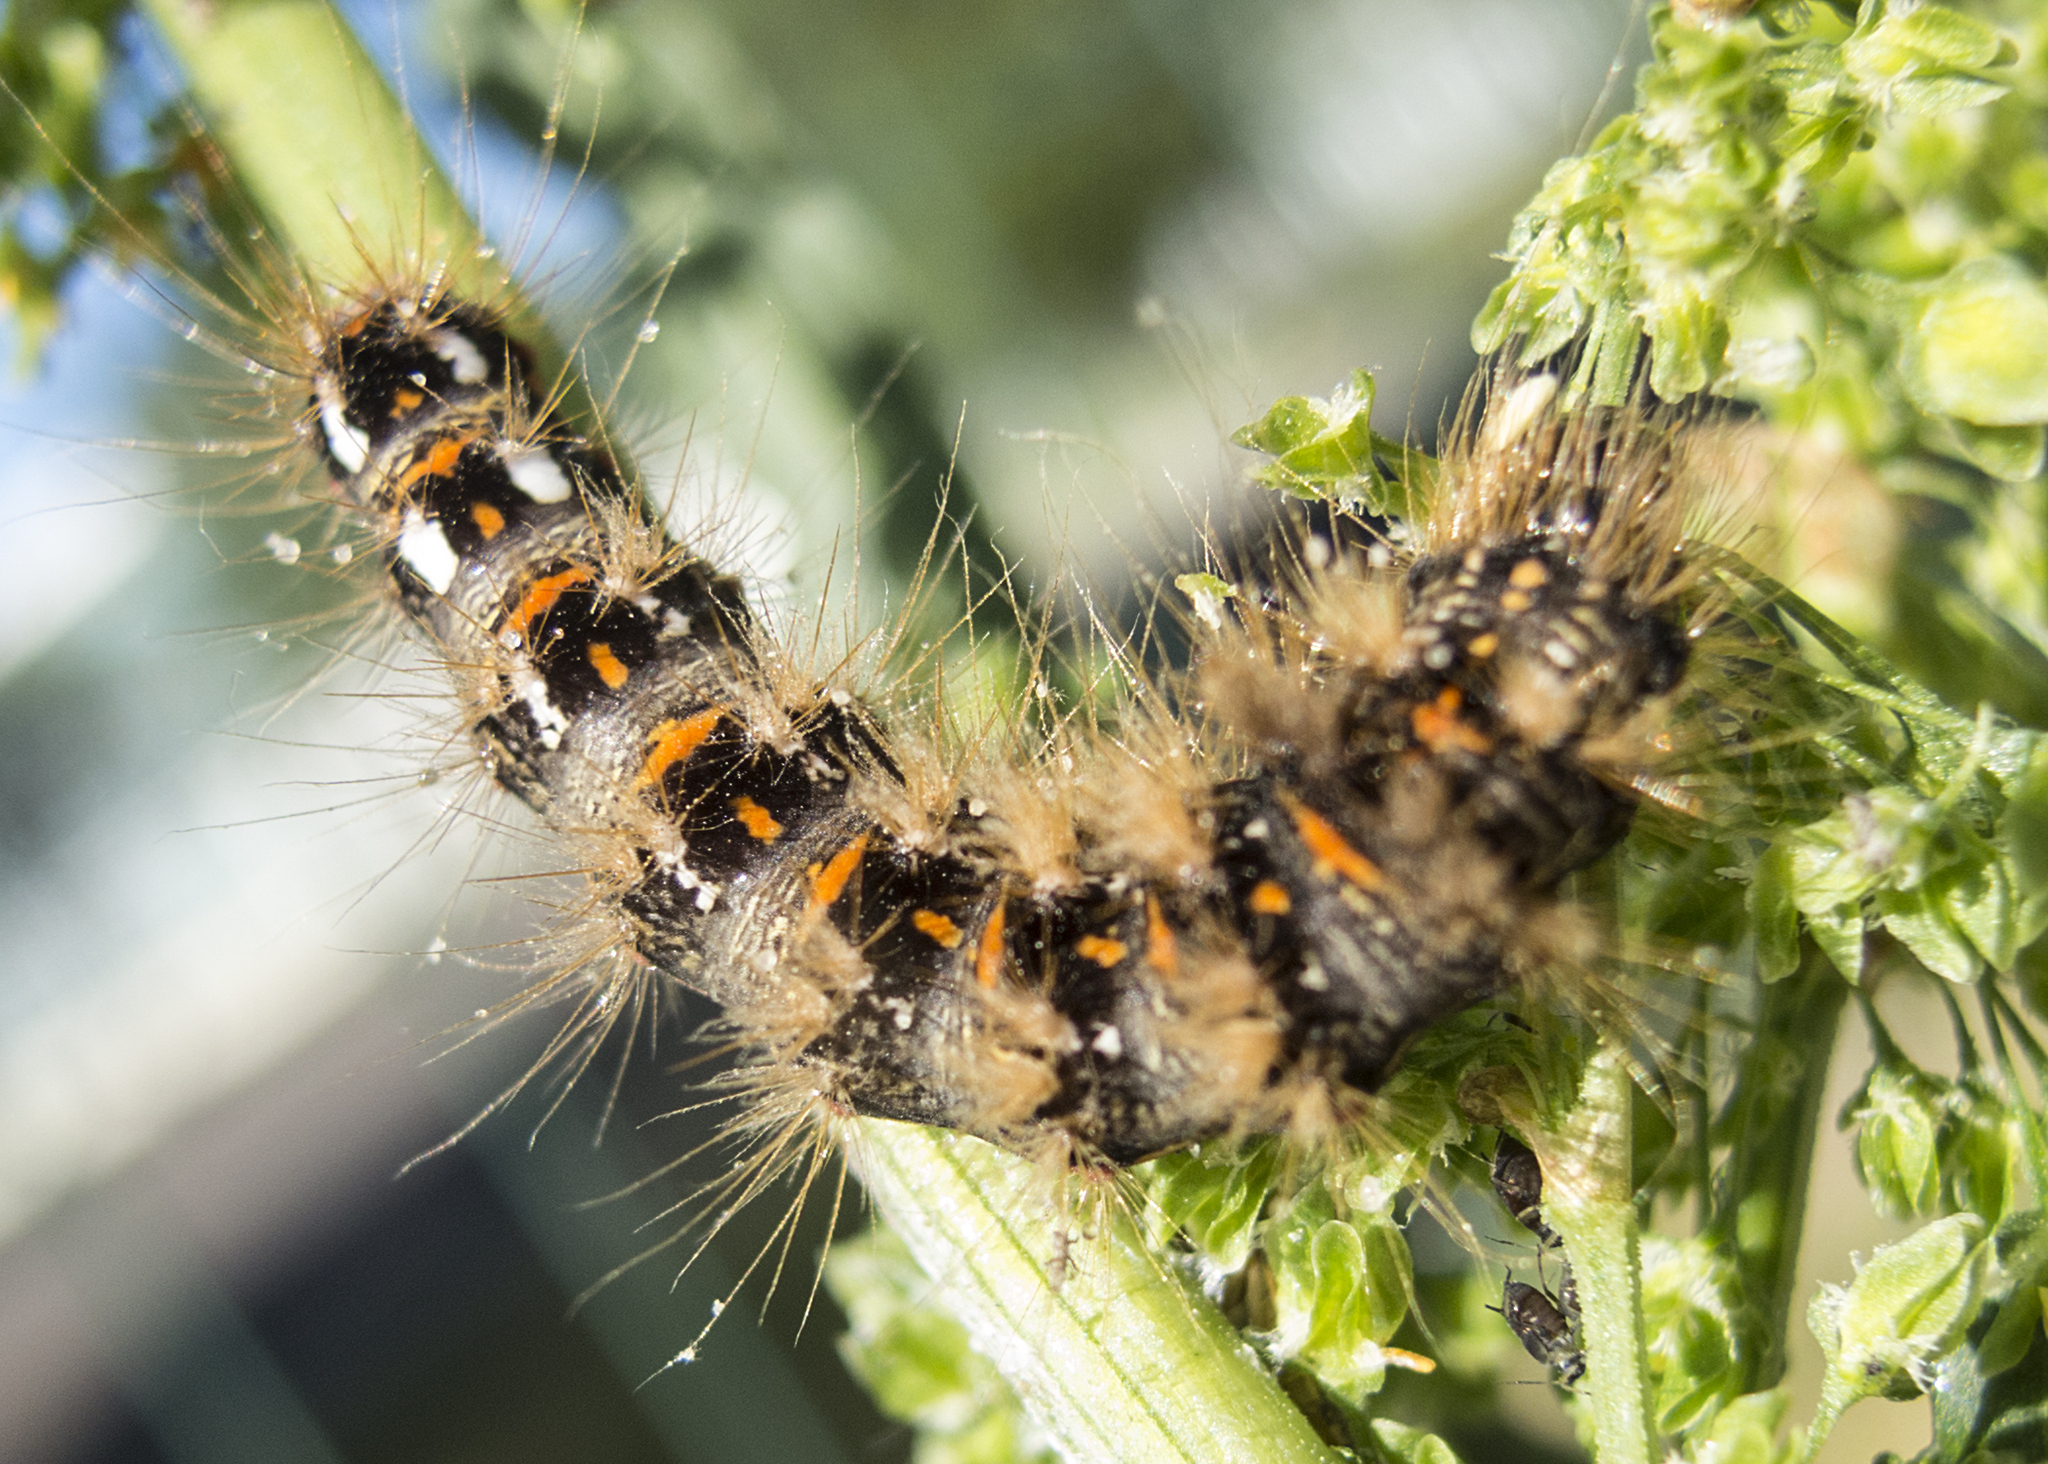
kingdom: Animalia
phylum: Arthropoda
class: Insecta
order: Lepidoptera
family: Noctuidae
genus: Acronicta
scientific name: Acronicta rumicis
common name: Knot grass
